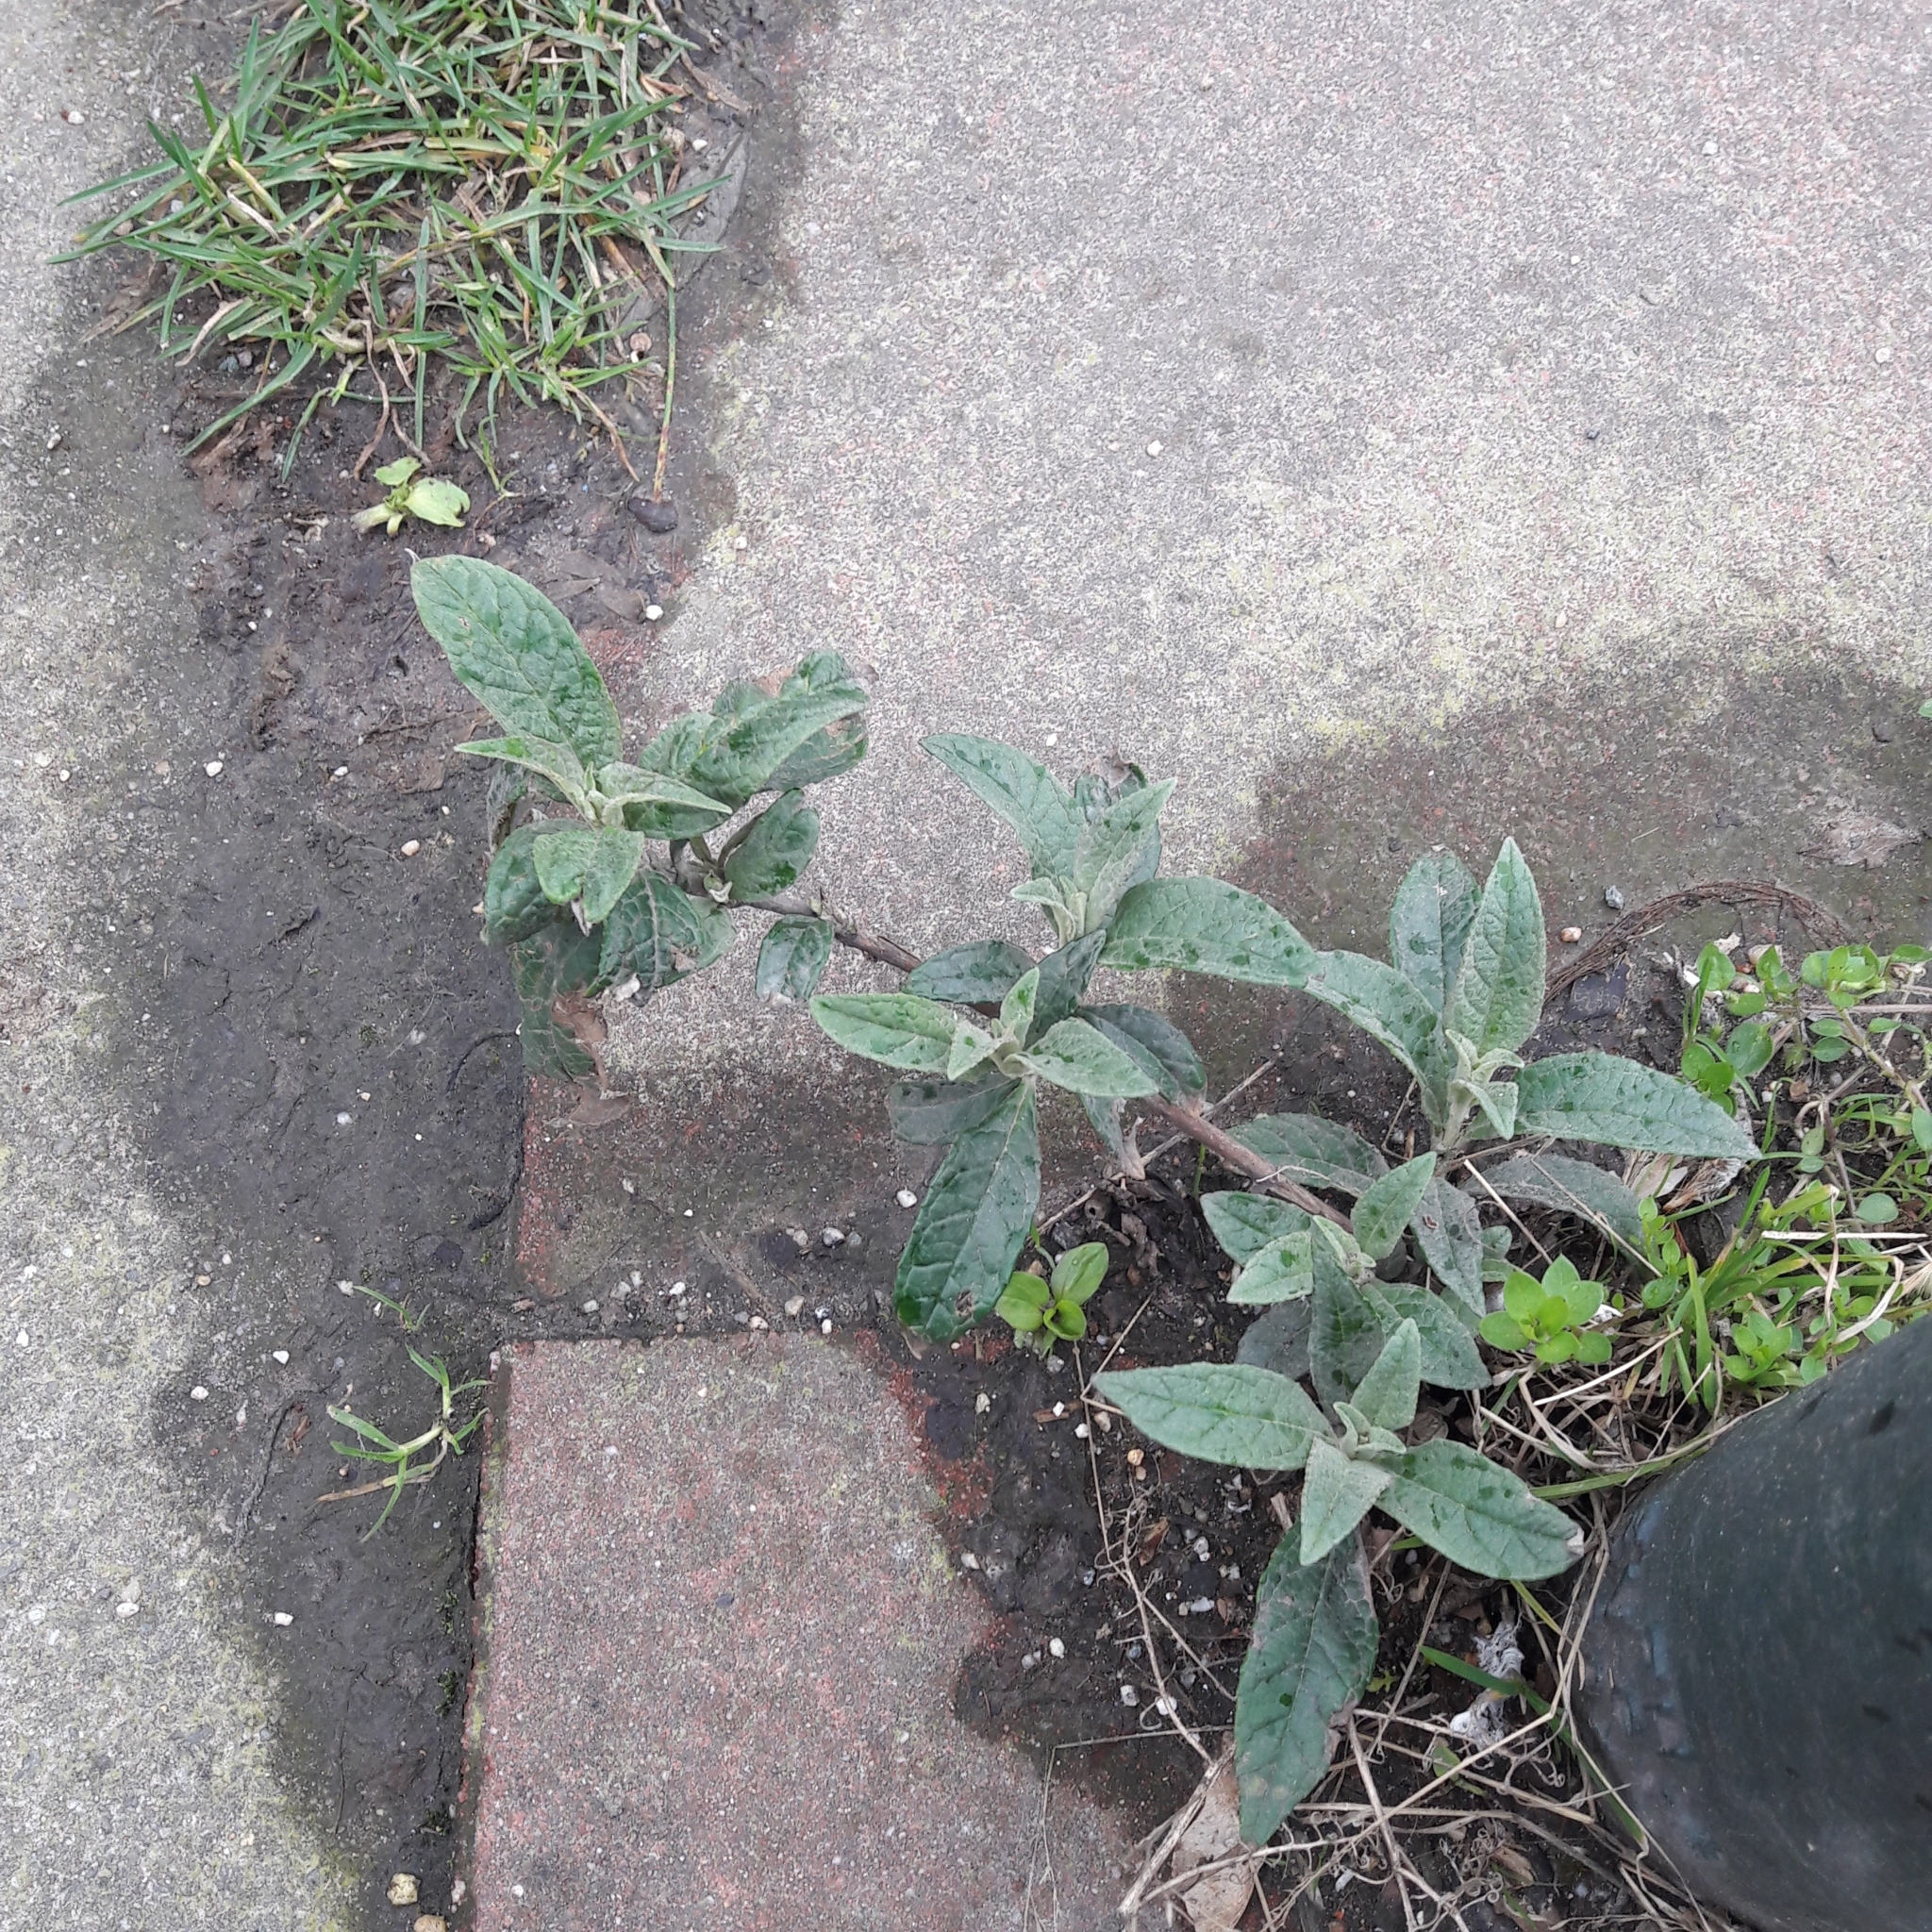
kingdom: Plantae
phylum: Tracheophyta
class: Magnoliopsida
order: Lamiales
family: Scrophulariaceae
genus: Buddleja
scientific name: Buddleja davidii
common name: Butterfly-bush
